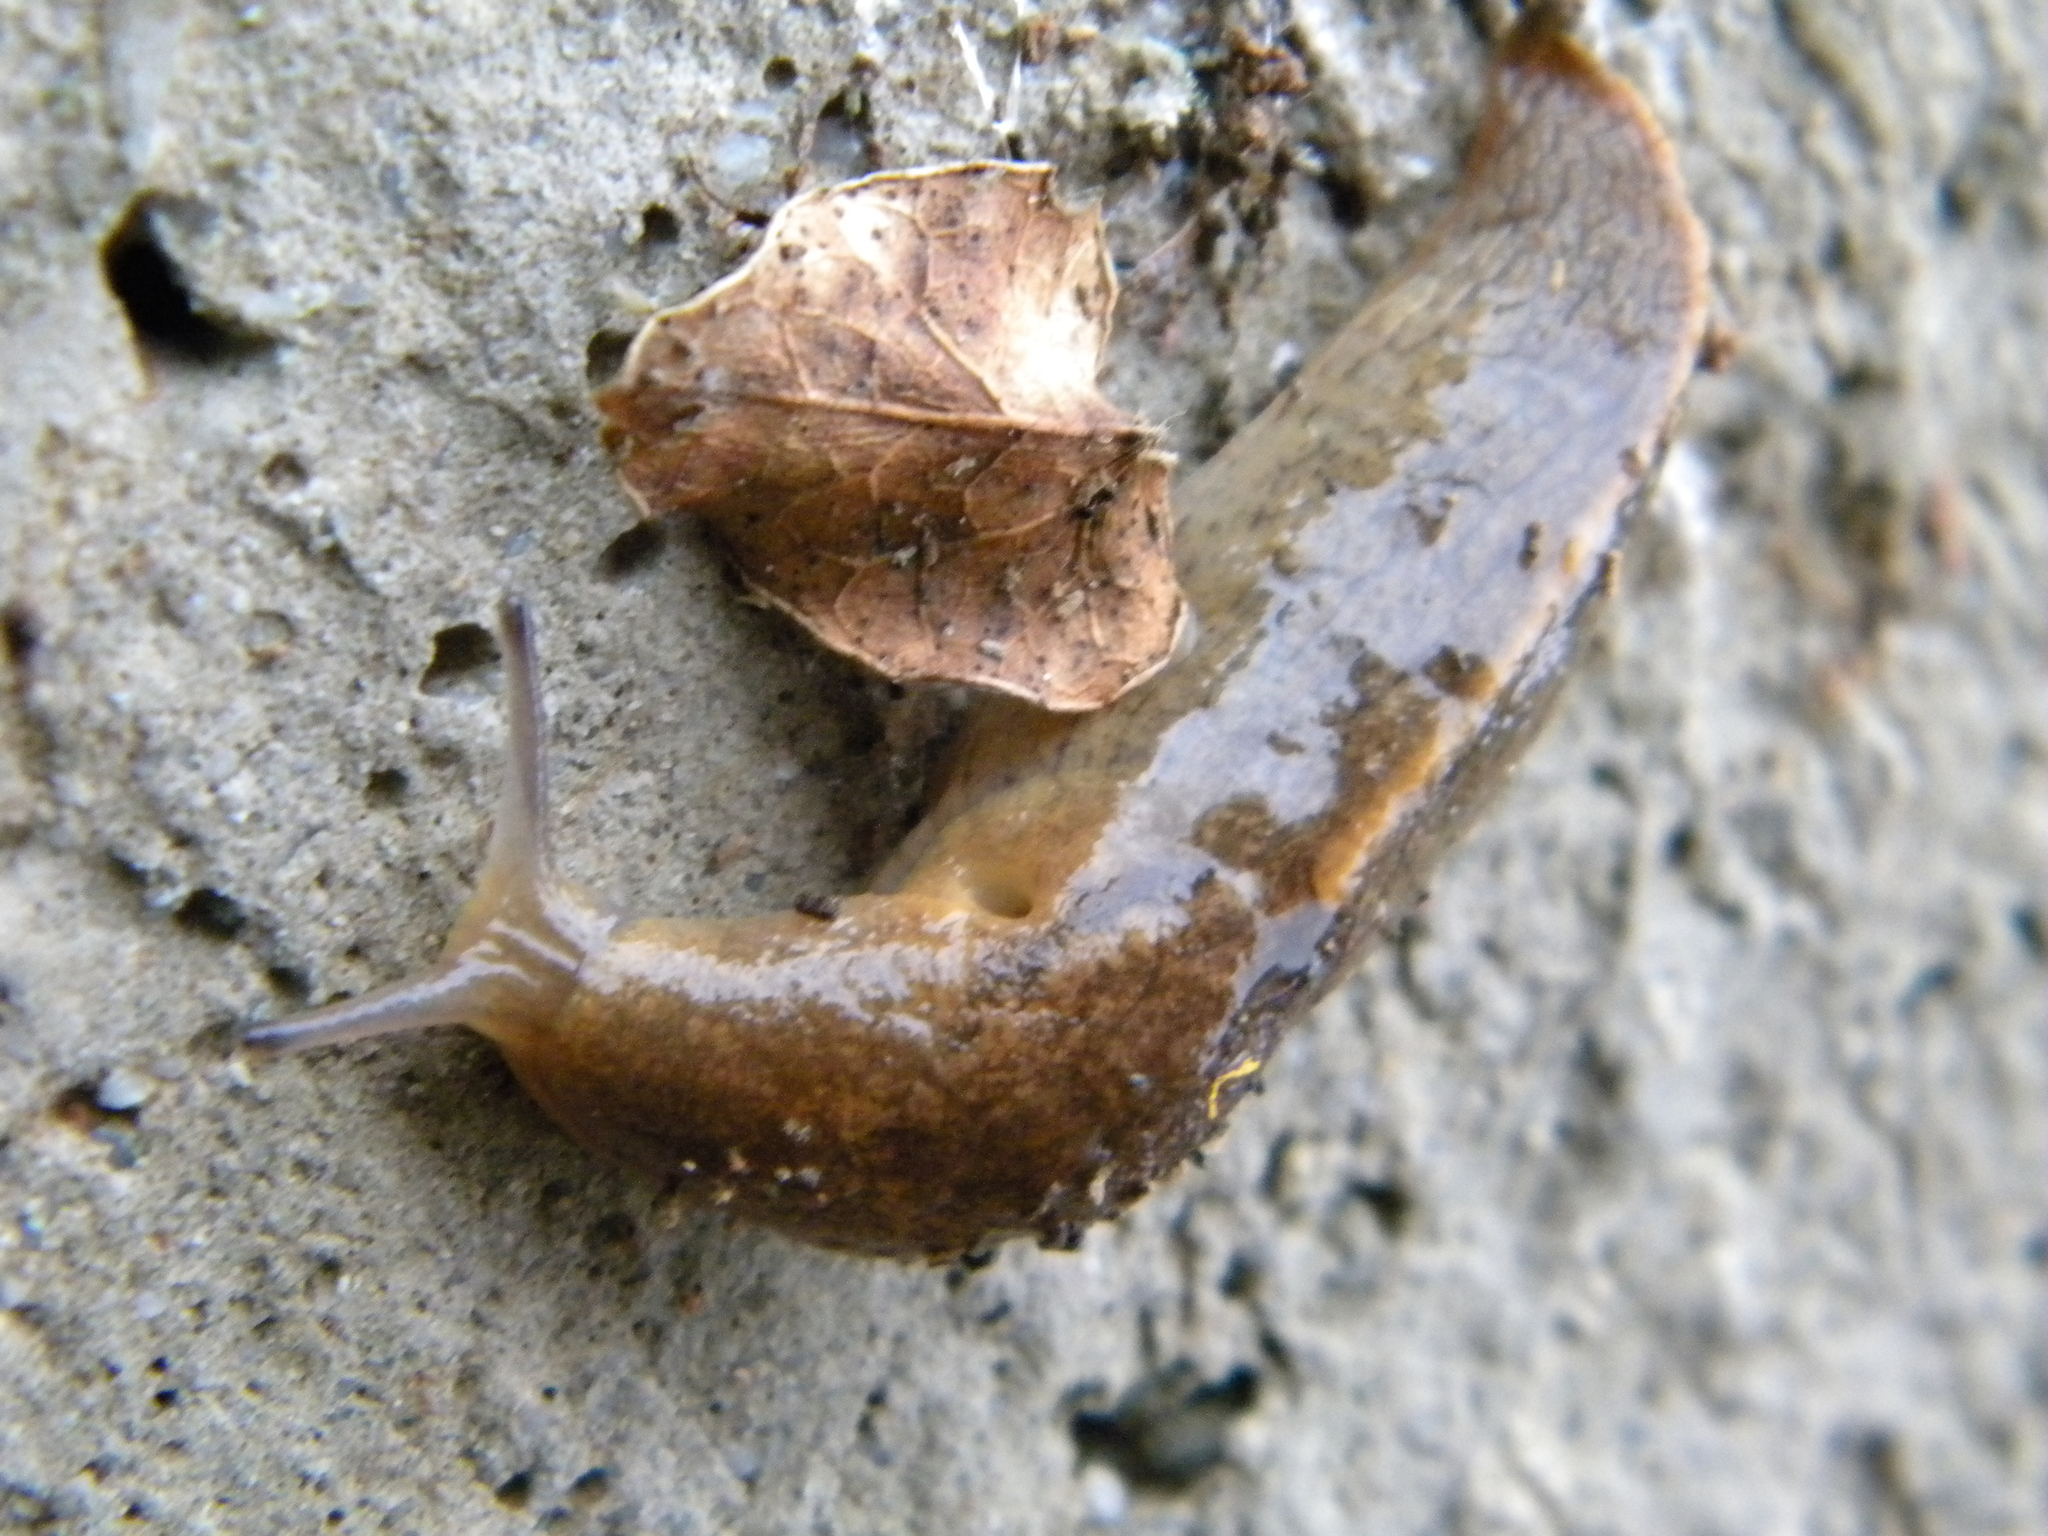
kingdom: Animalia
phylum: Mollusca
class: Gastropoda
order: Stylommatophora
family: Milacidae
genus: Tandonia
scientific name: Tandonia sowerbyi
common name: Keeled slug
